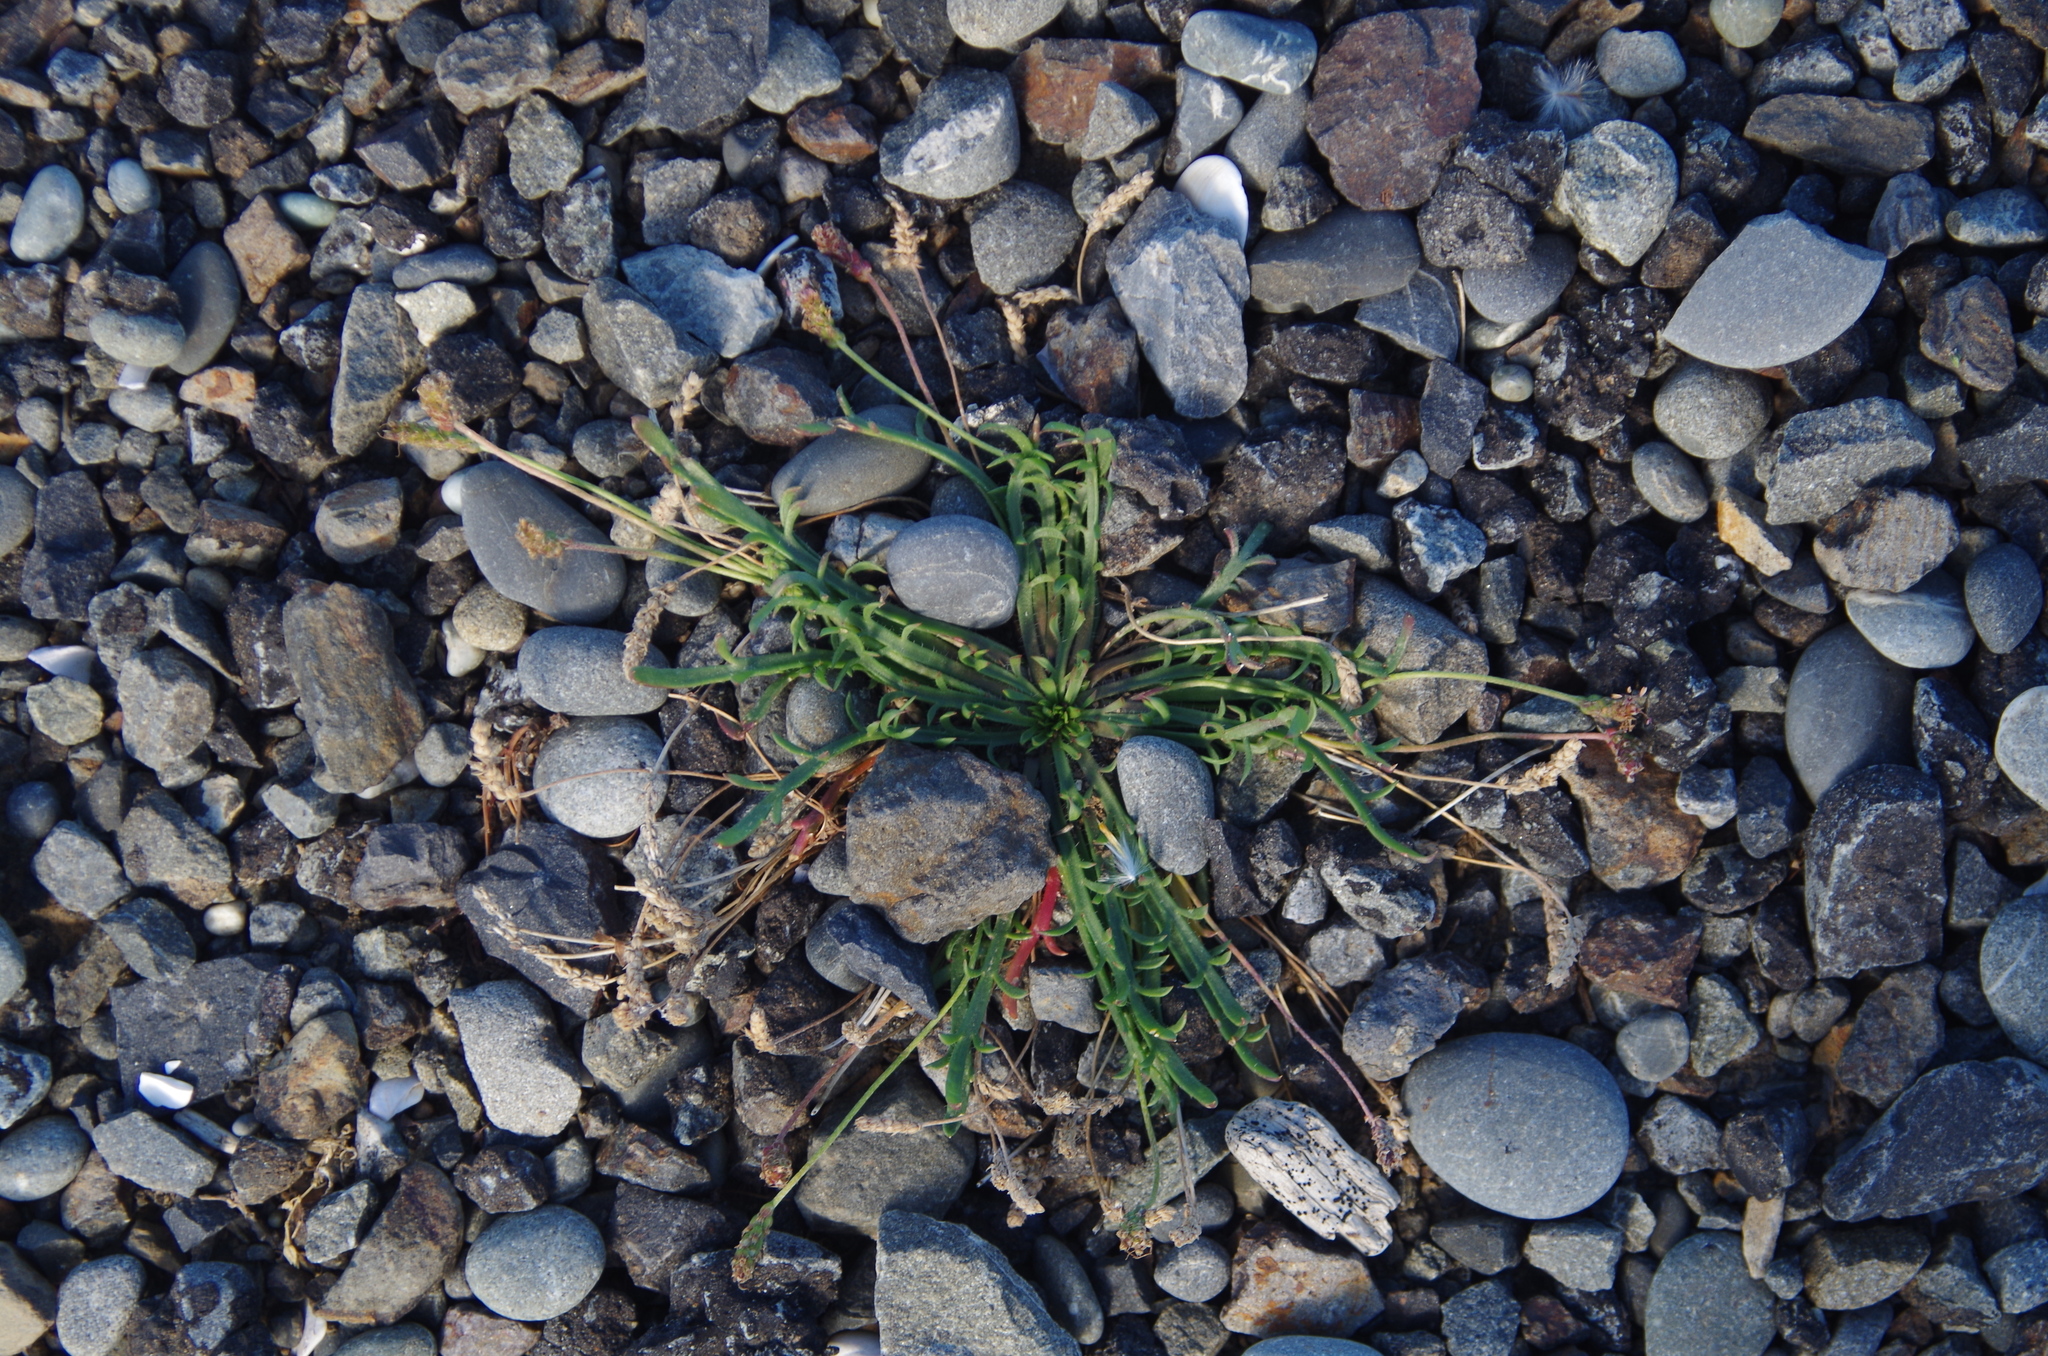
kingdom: Plantae
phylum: Tracheophyta
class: Magnoliopsida
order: Lamiales
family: Plantaginaceae
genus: Plantago
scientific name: Plantago coronopus
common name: Buck's-horn plantain
